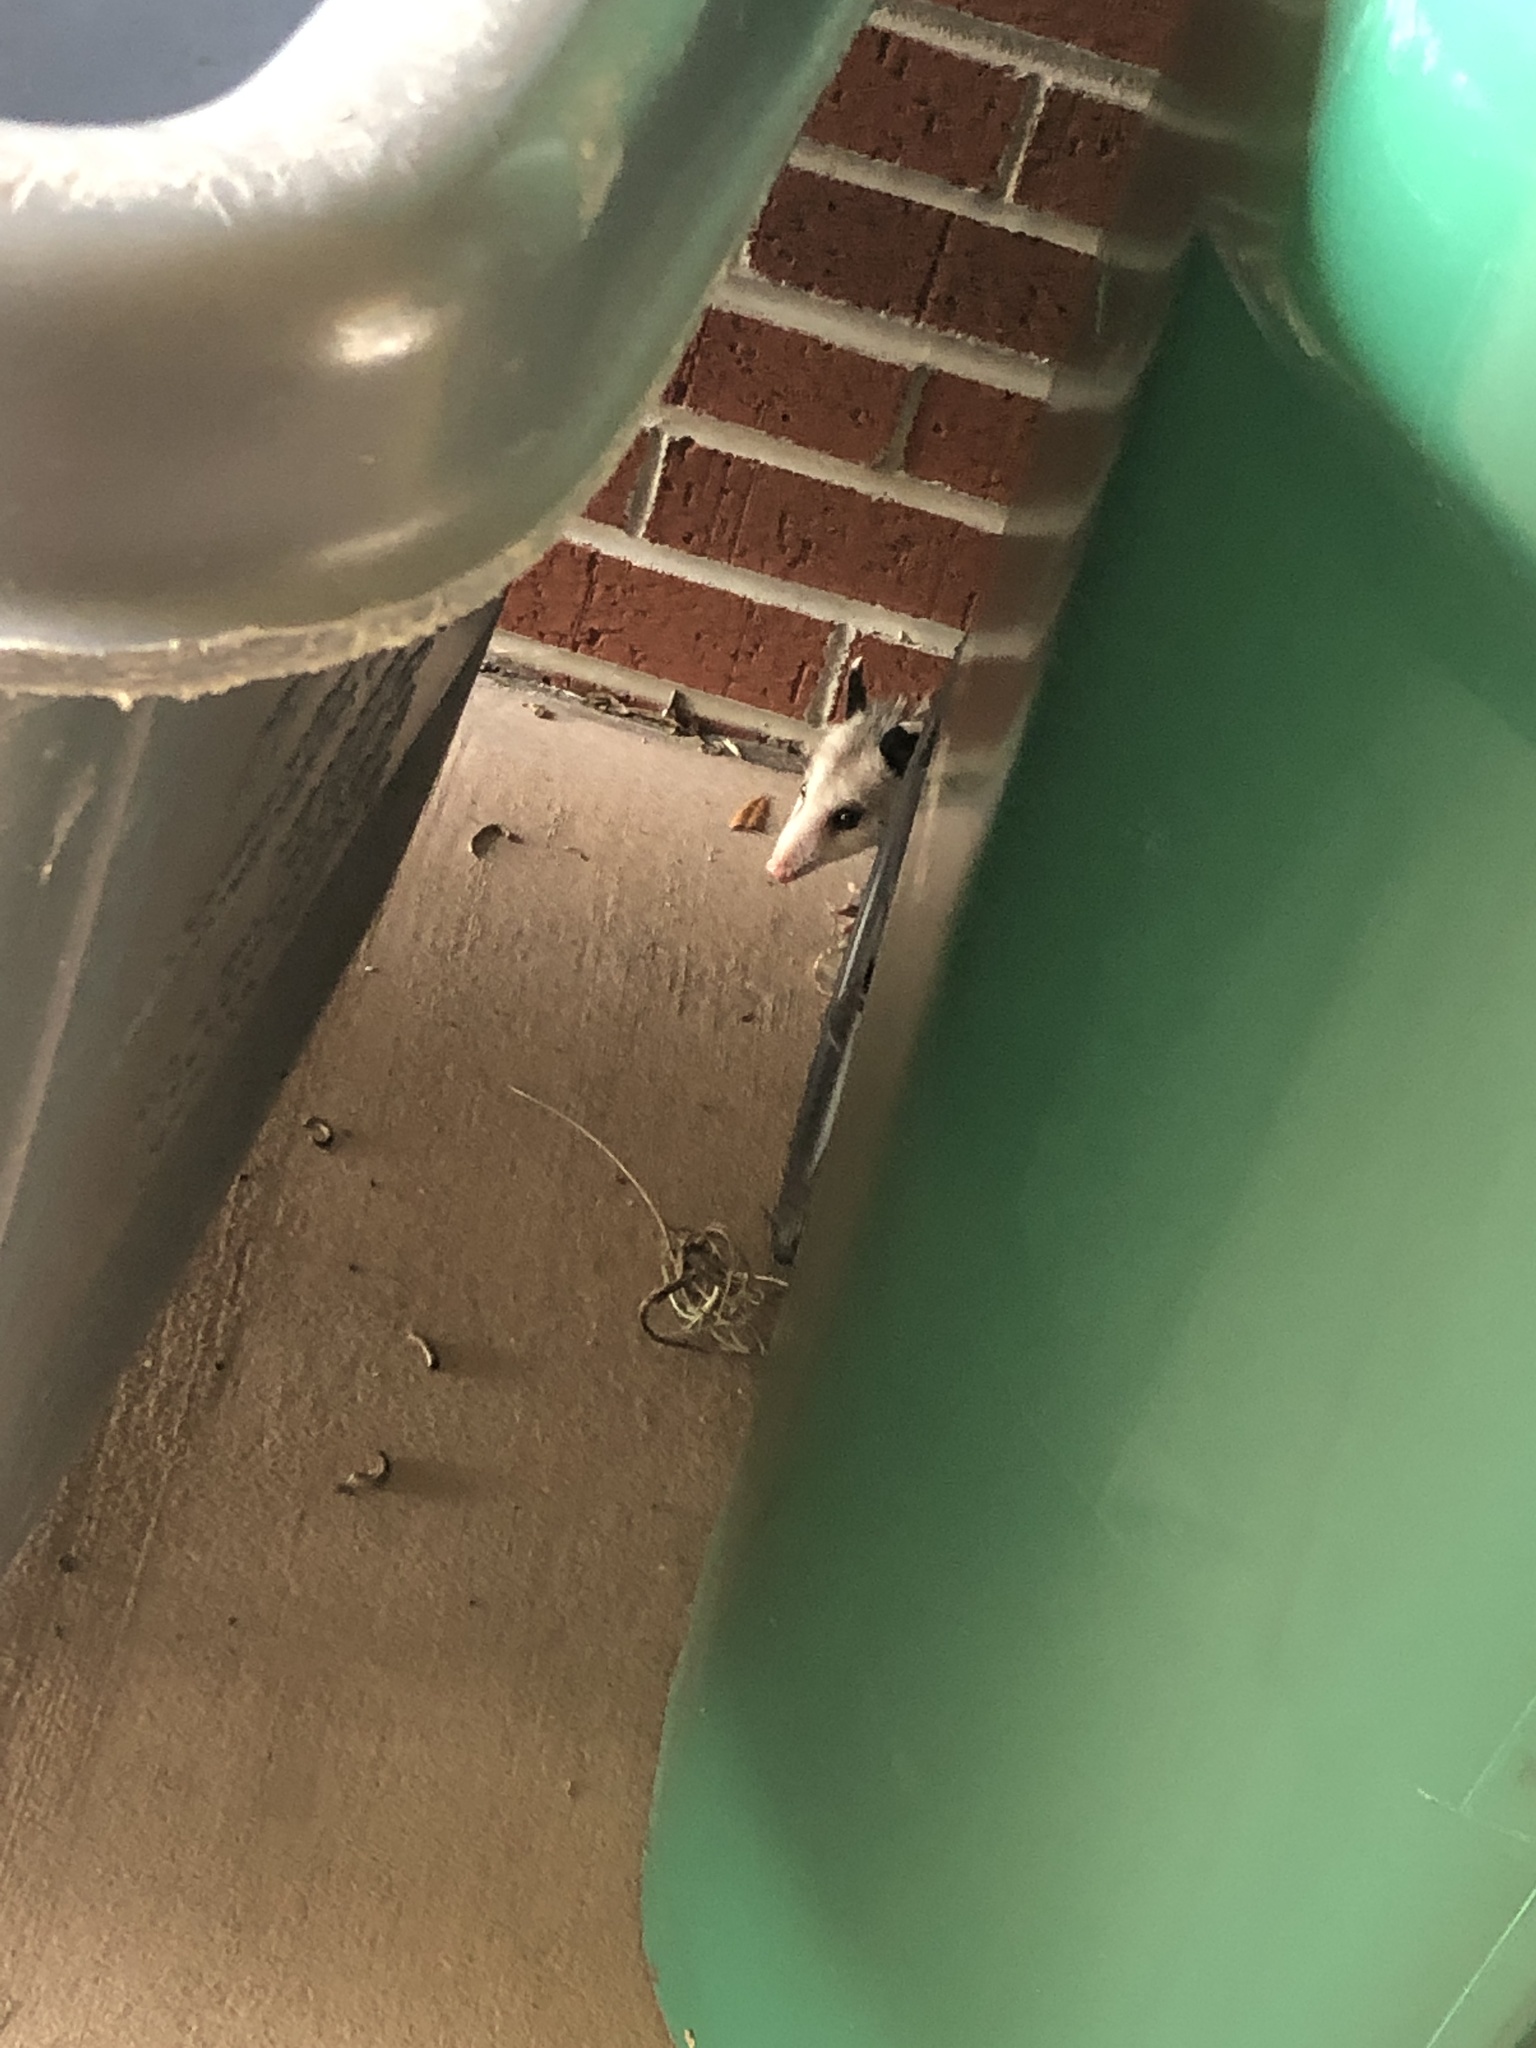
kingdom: Animalia
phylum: Chordata
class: Mammalia
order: Didelphimorphia
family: Didelphidae
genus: Didelphis
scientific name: Didelphis virginiana
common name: Virginia opossum
